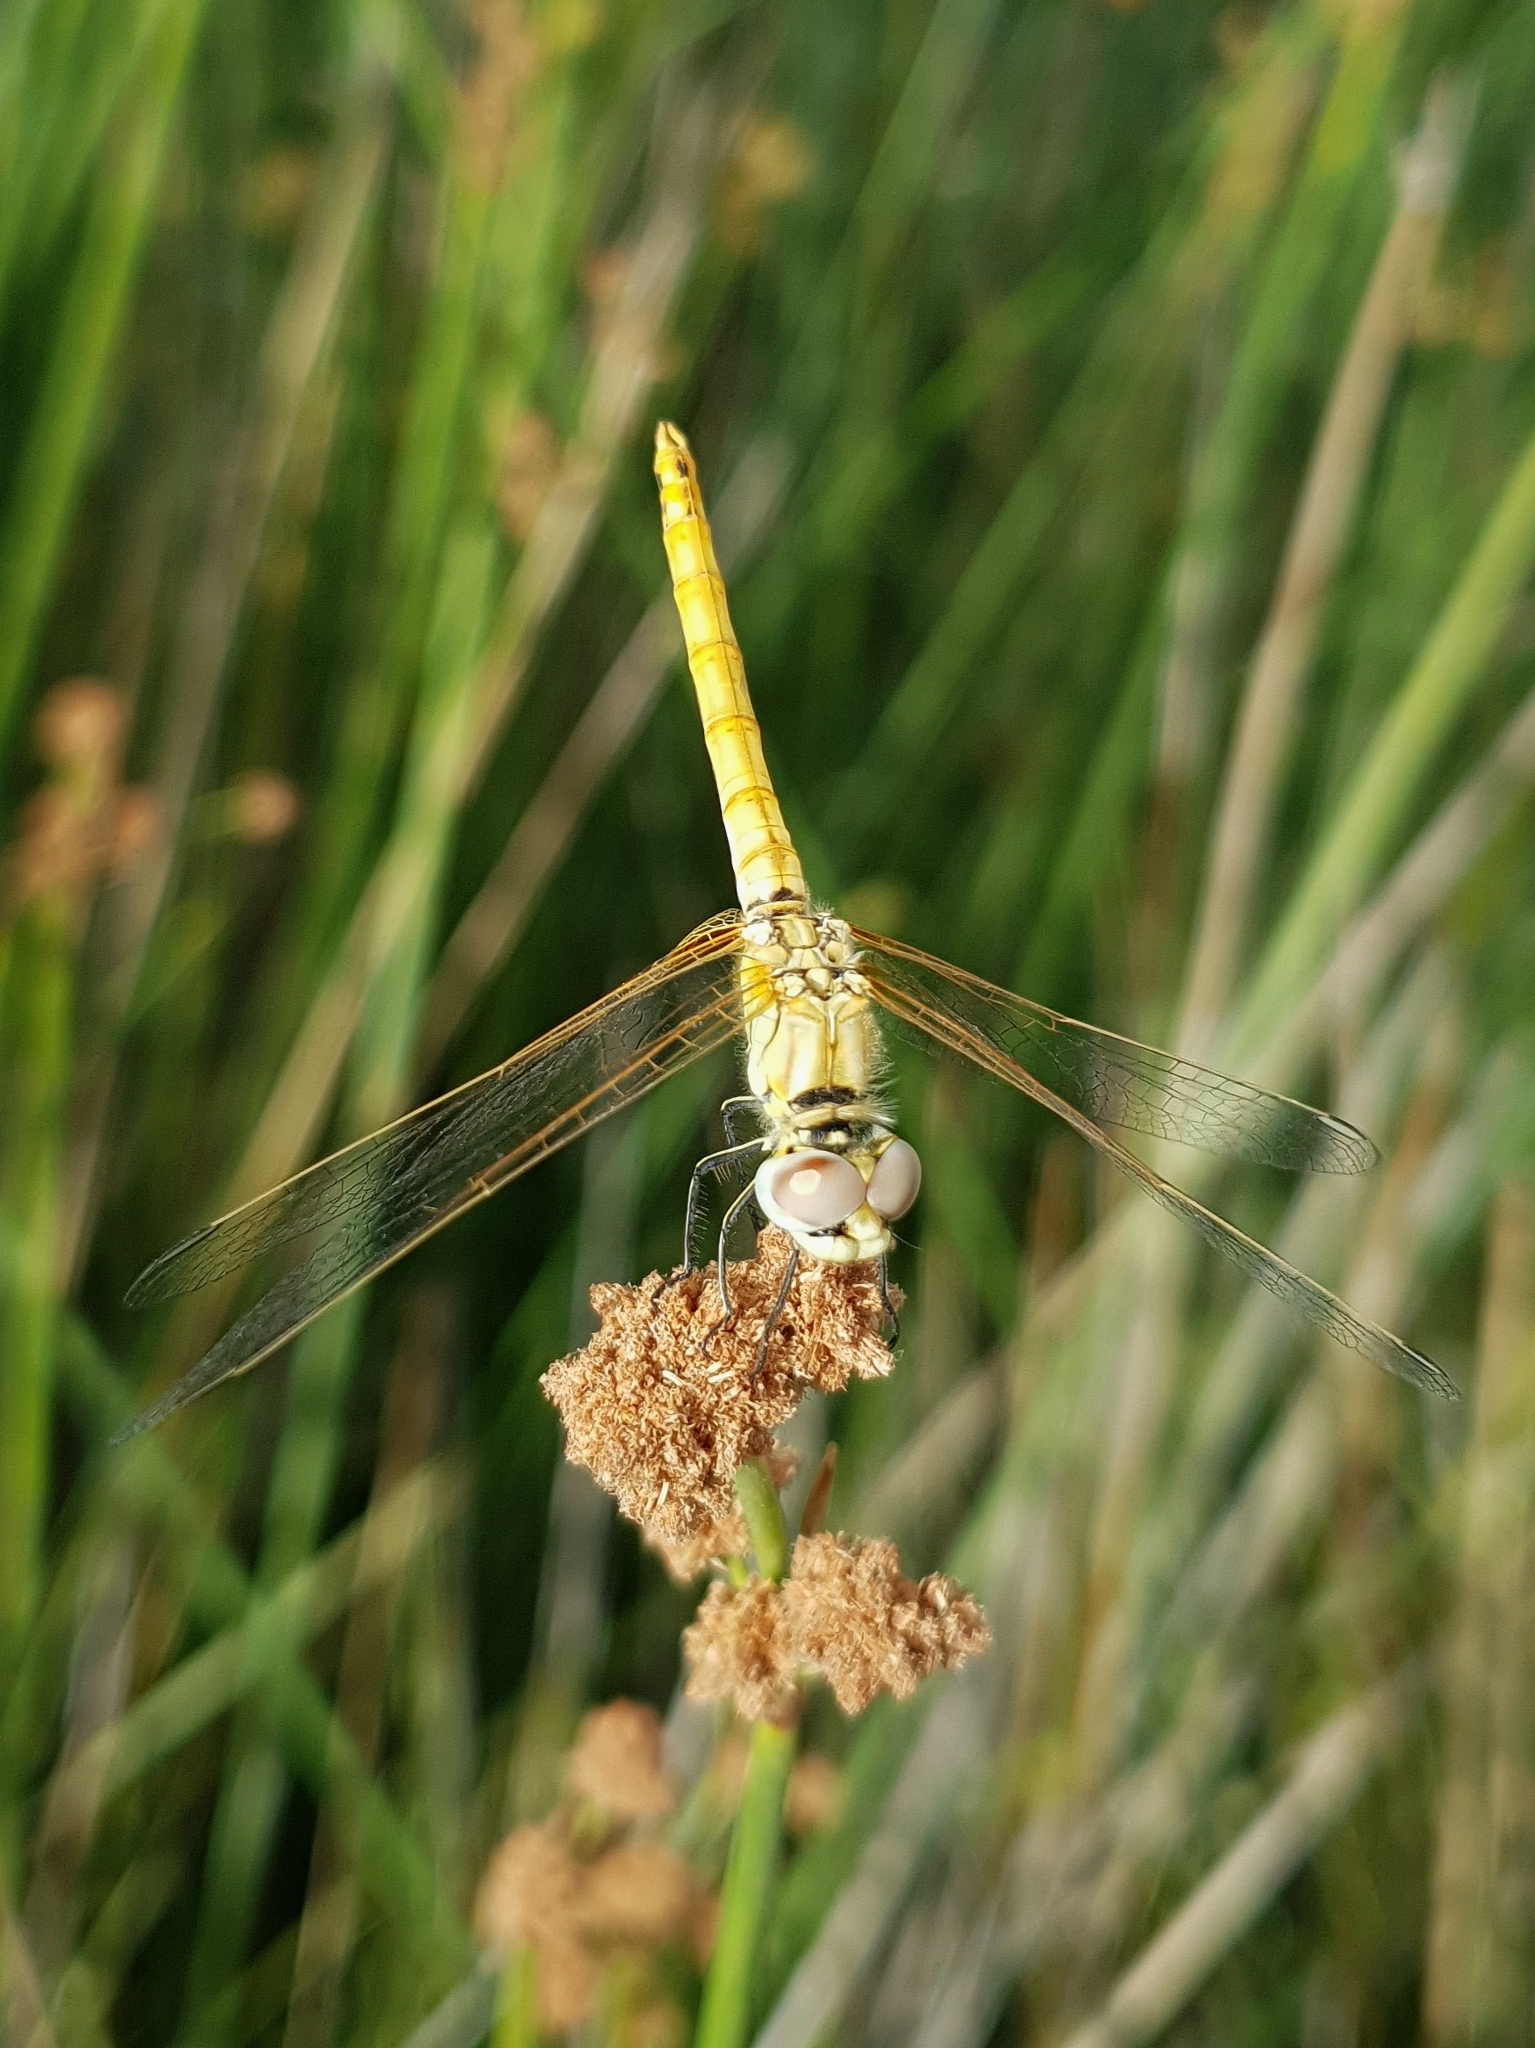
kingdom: Animalia
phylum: Arthropoda
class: Insecta
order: Odonata
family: Libellulidae
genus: Sympetrum
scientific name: Sympetrum fonscolombii
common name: Red-veined darter
